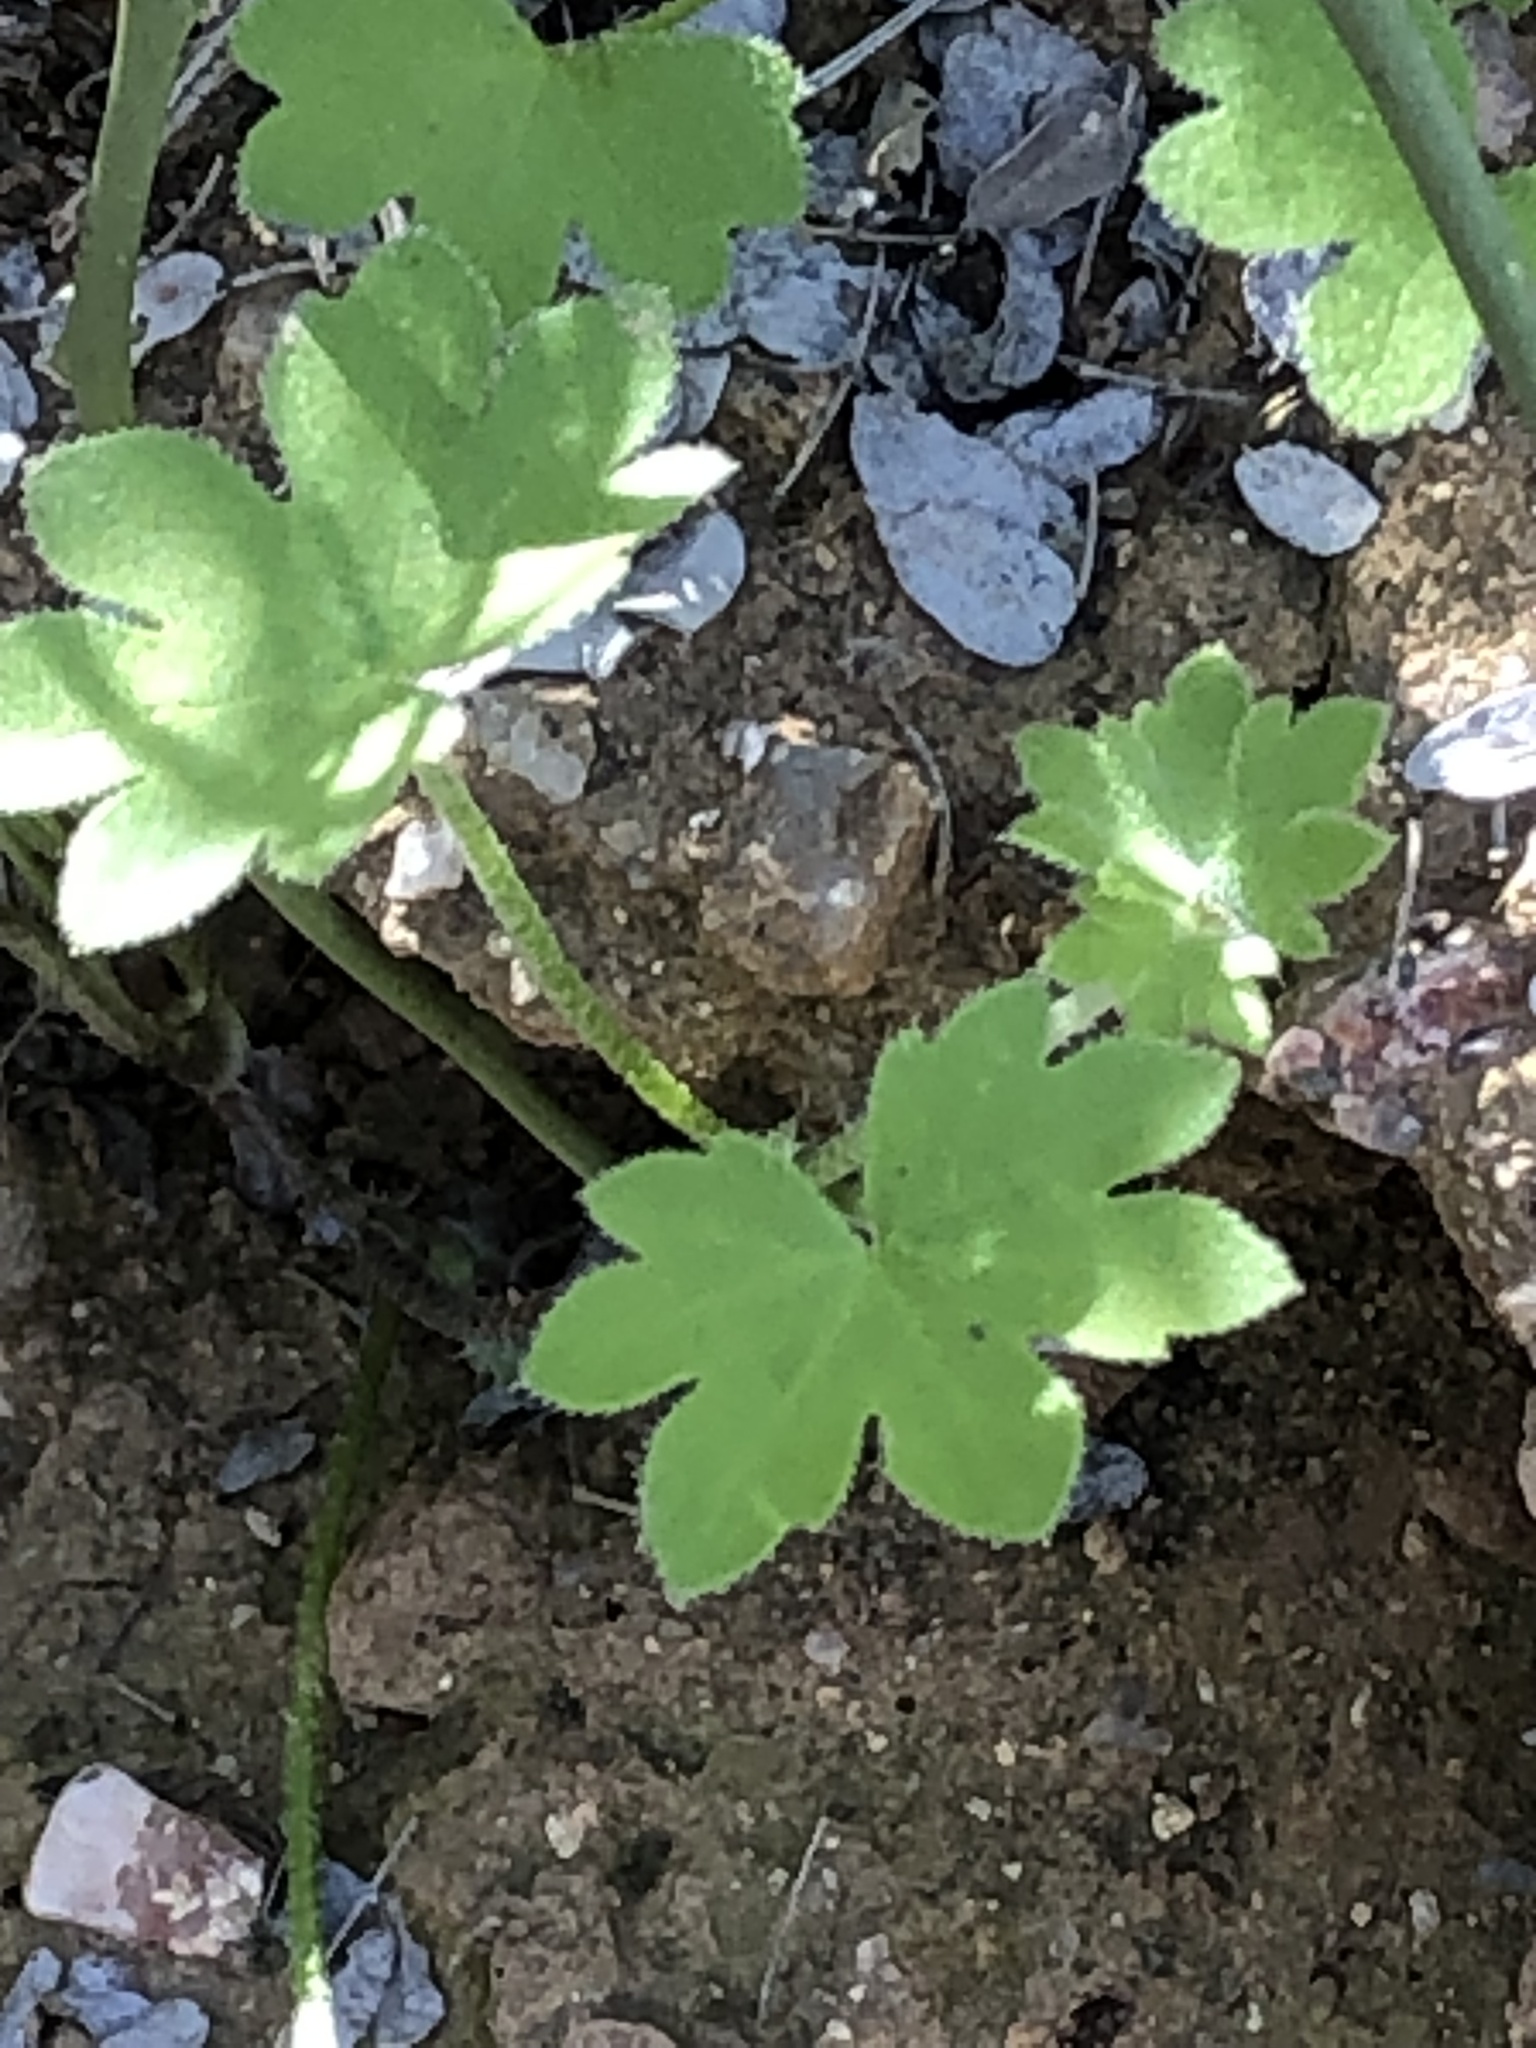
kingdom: Plantae
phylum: Tracheophyta
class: Magnoliopsida
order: Apiales
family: Apiaceae
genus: Bowlesia
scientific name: Bowlesia incana
